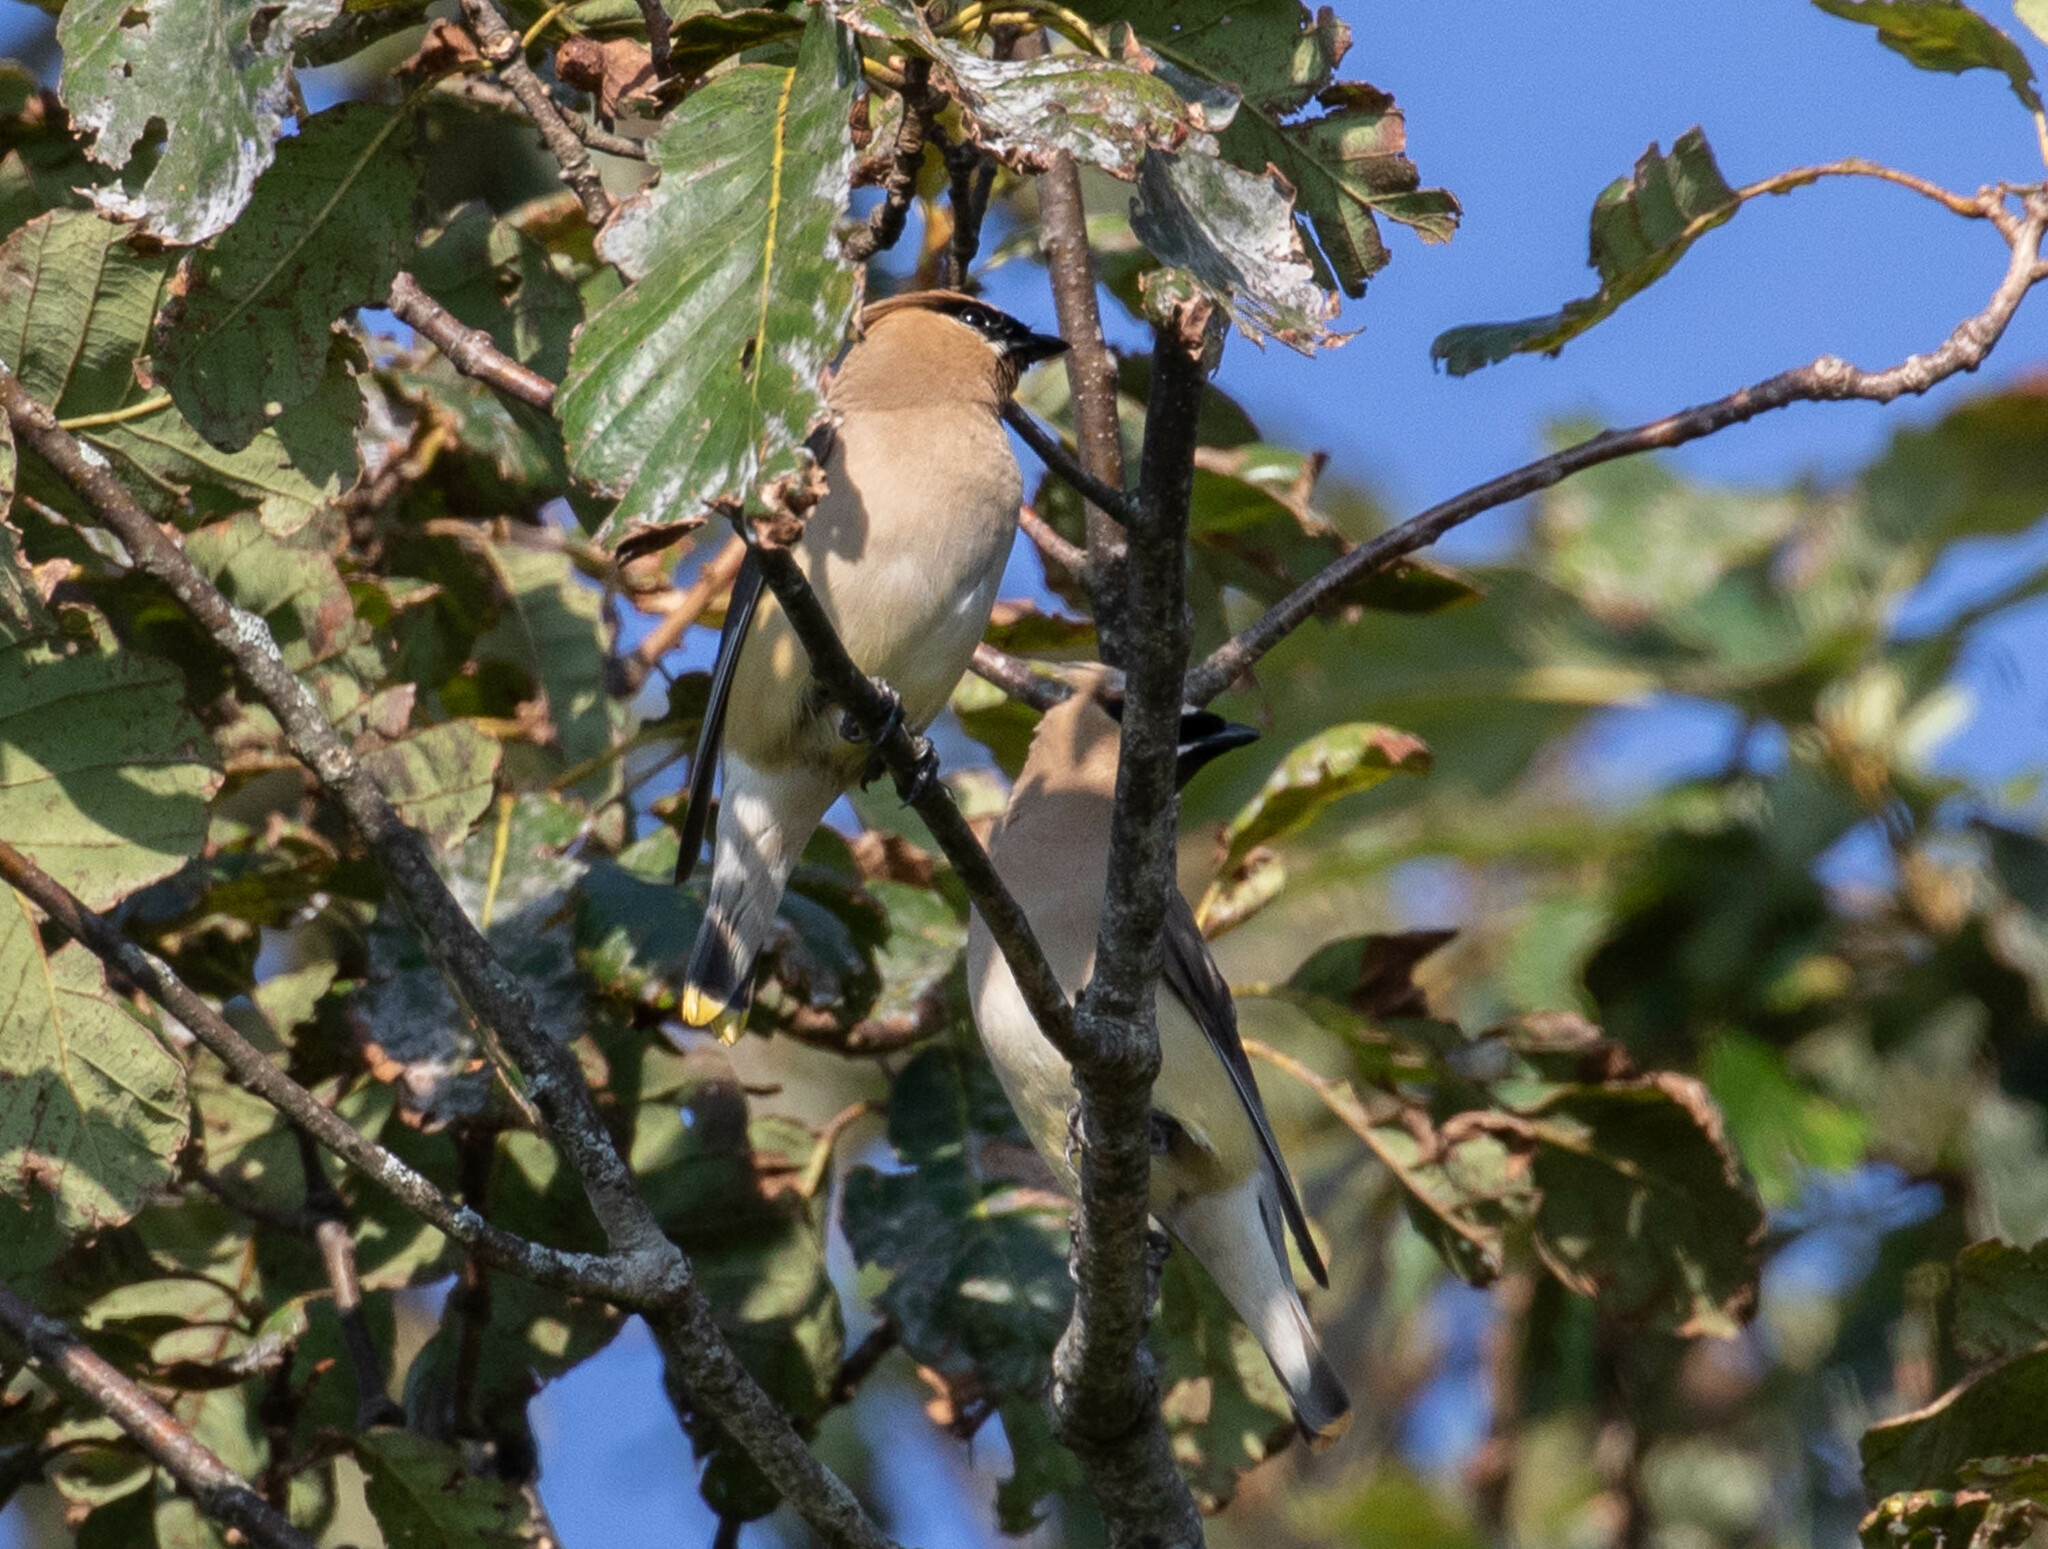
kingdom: Animalia
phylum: Chordata
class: Aves
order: Passeriformes
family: Bombycillidae
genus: Bombycilla
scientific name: Bombycilla cedrorum
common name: Cedar waxwing
